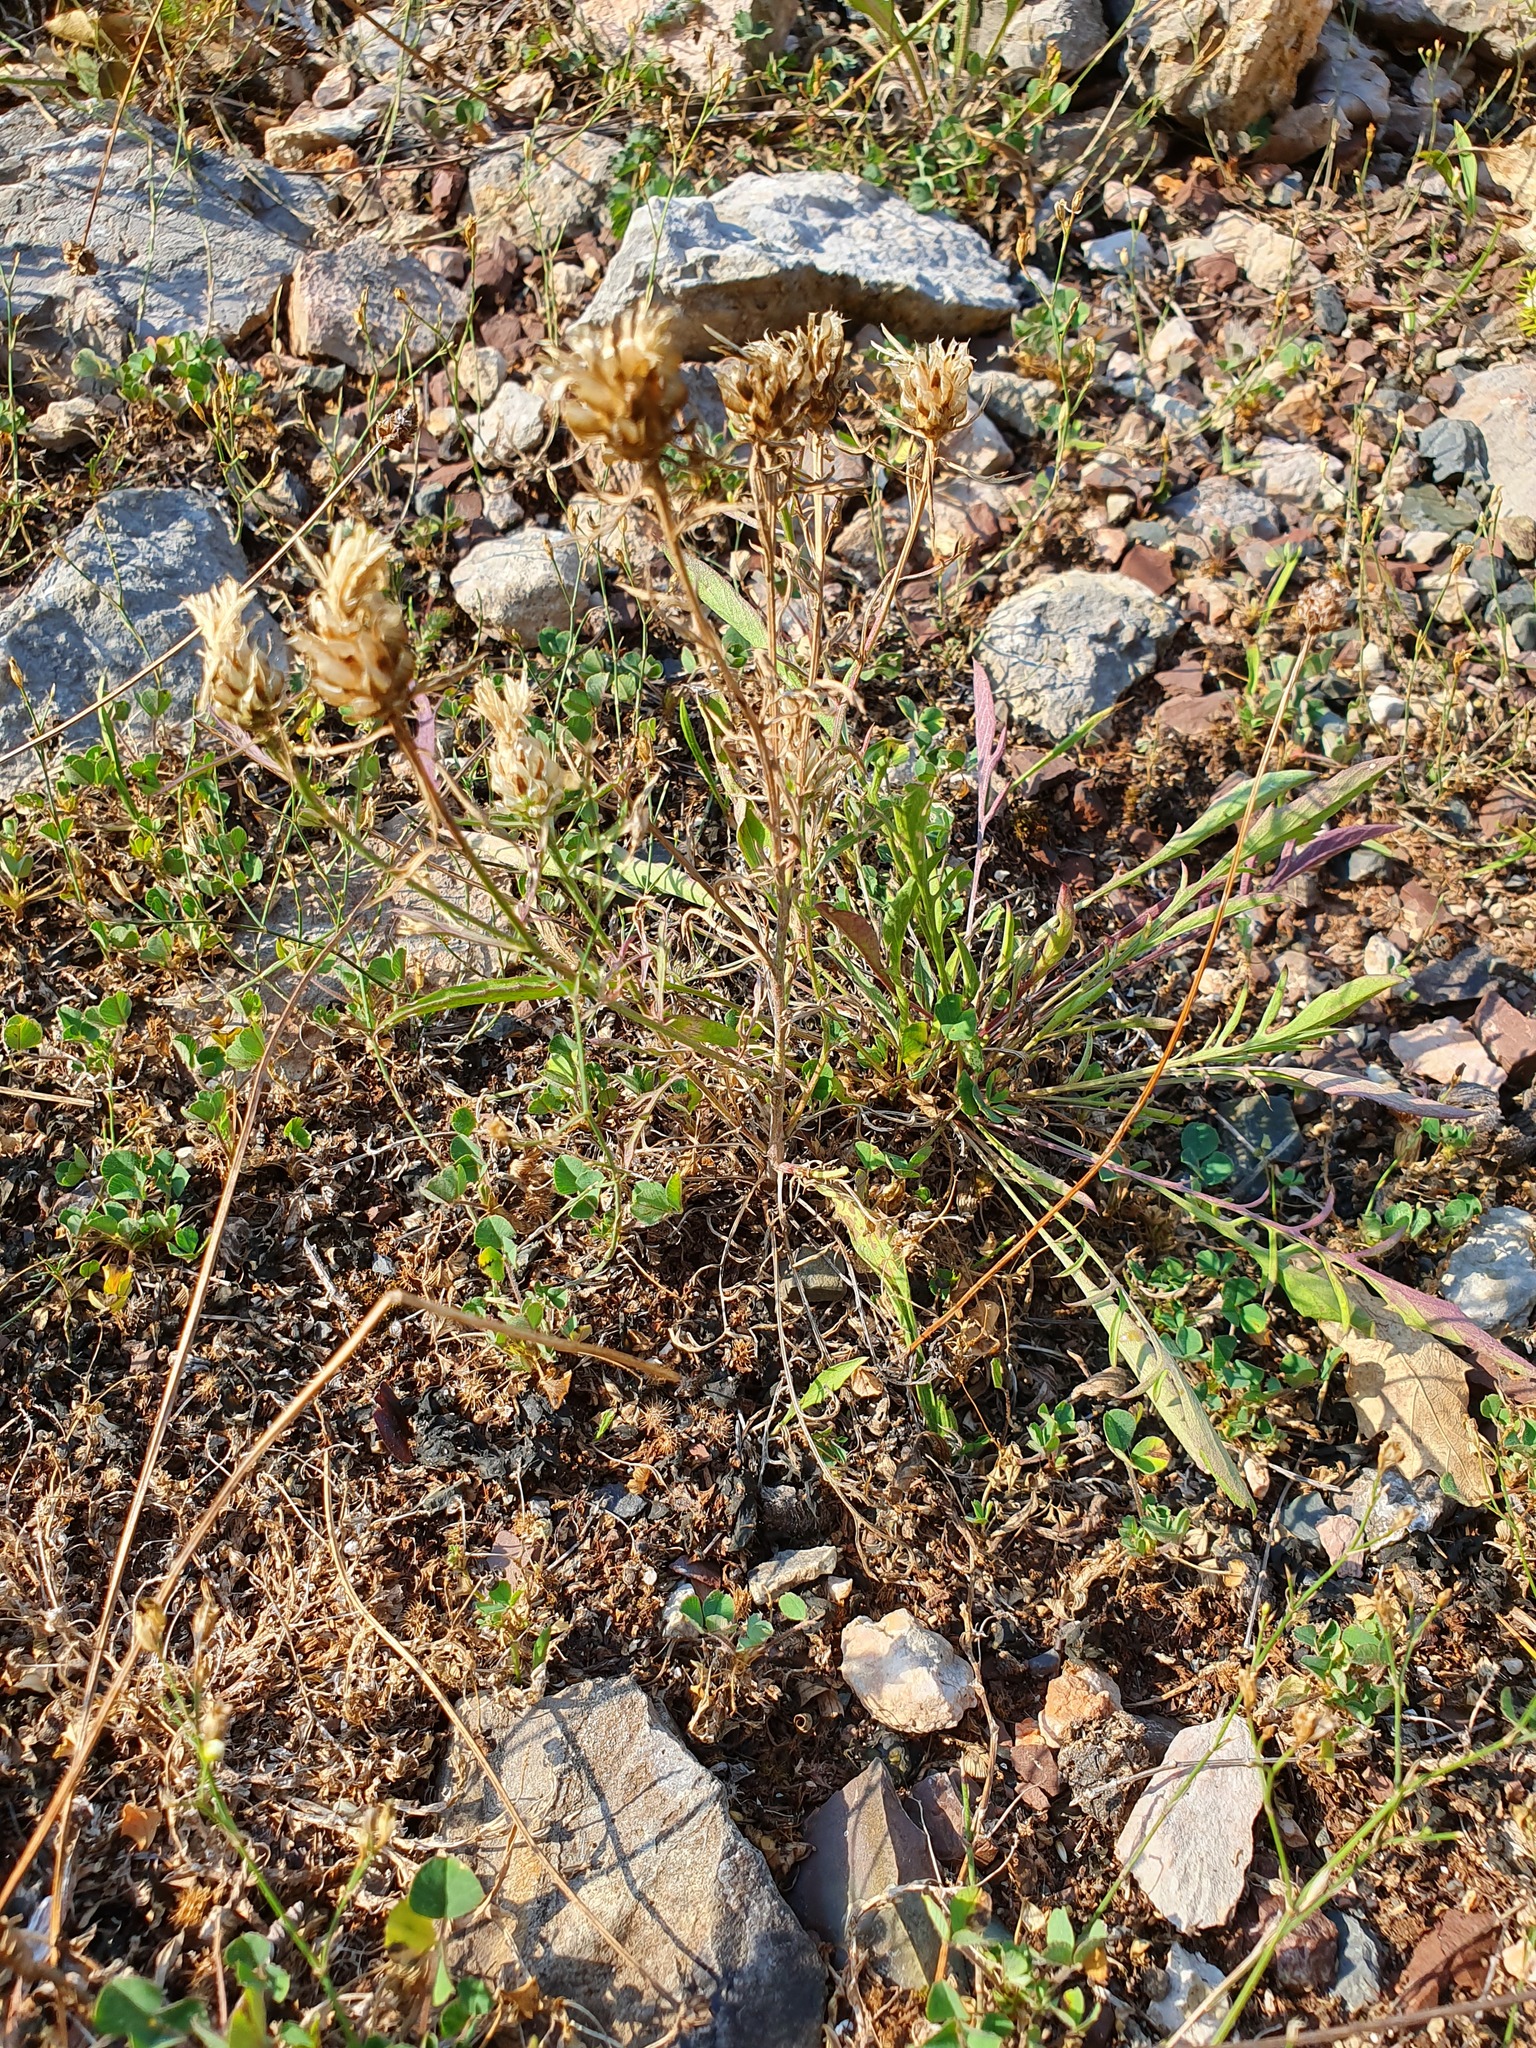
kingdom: Plantae
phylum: Tracheophyta
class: Magnoliopsida
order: Asterales
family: Asteraceae
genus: Centaurea
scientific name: Centaurea alba
